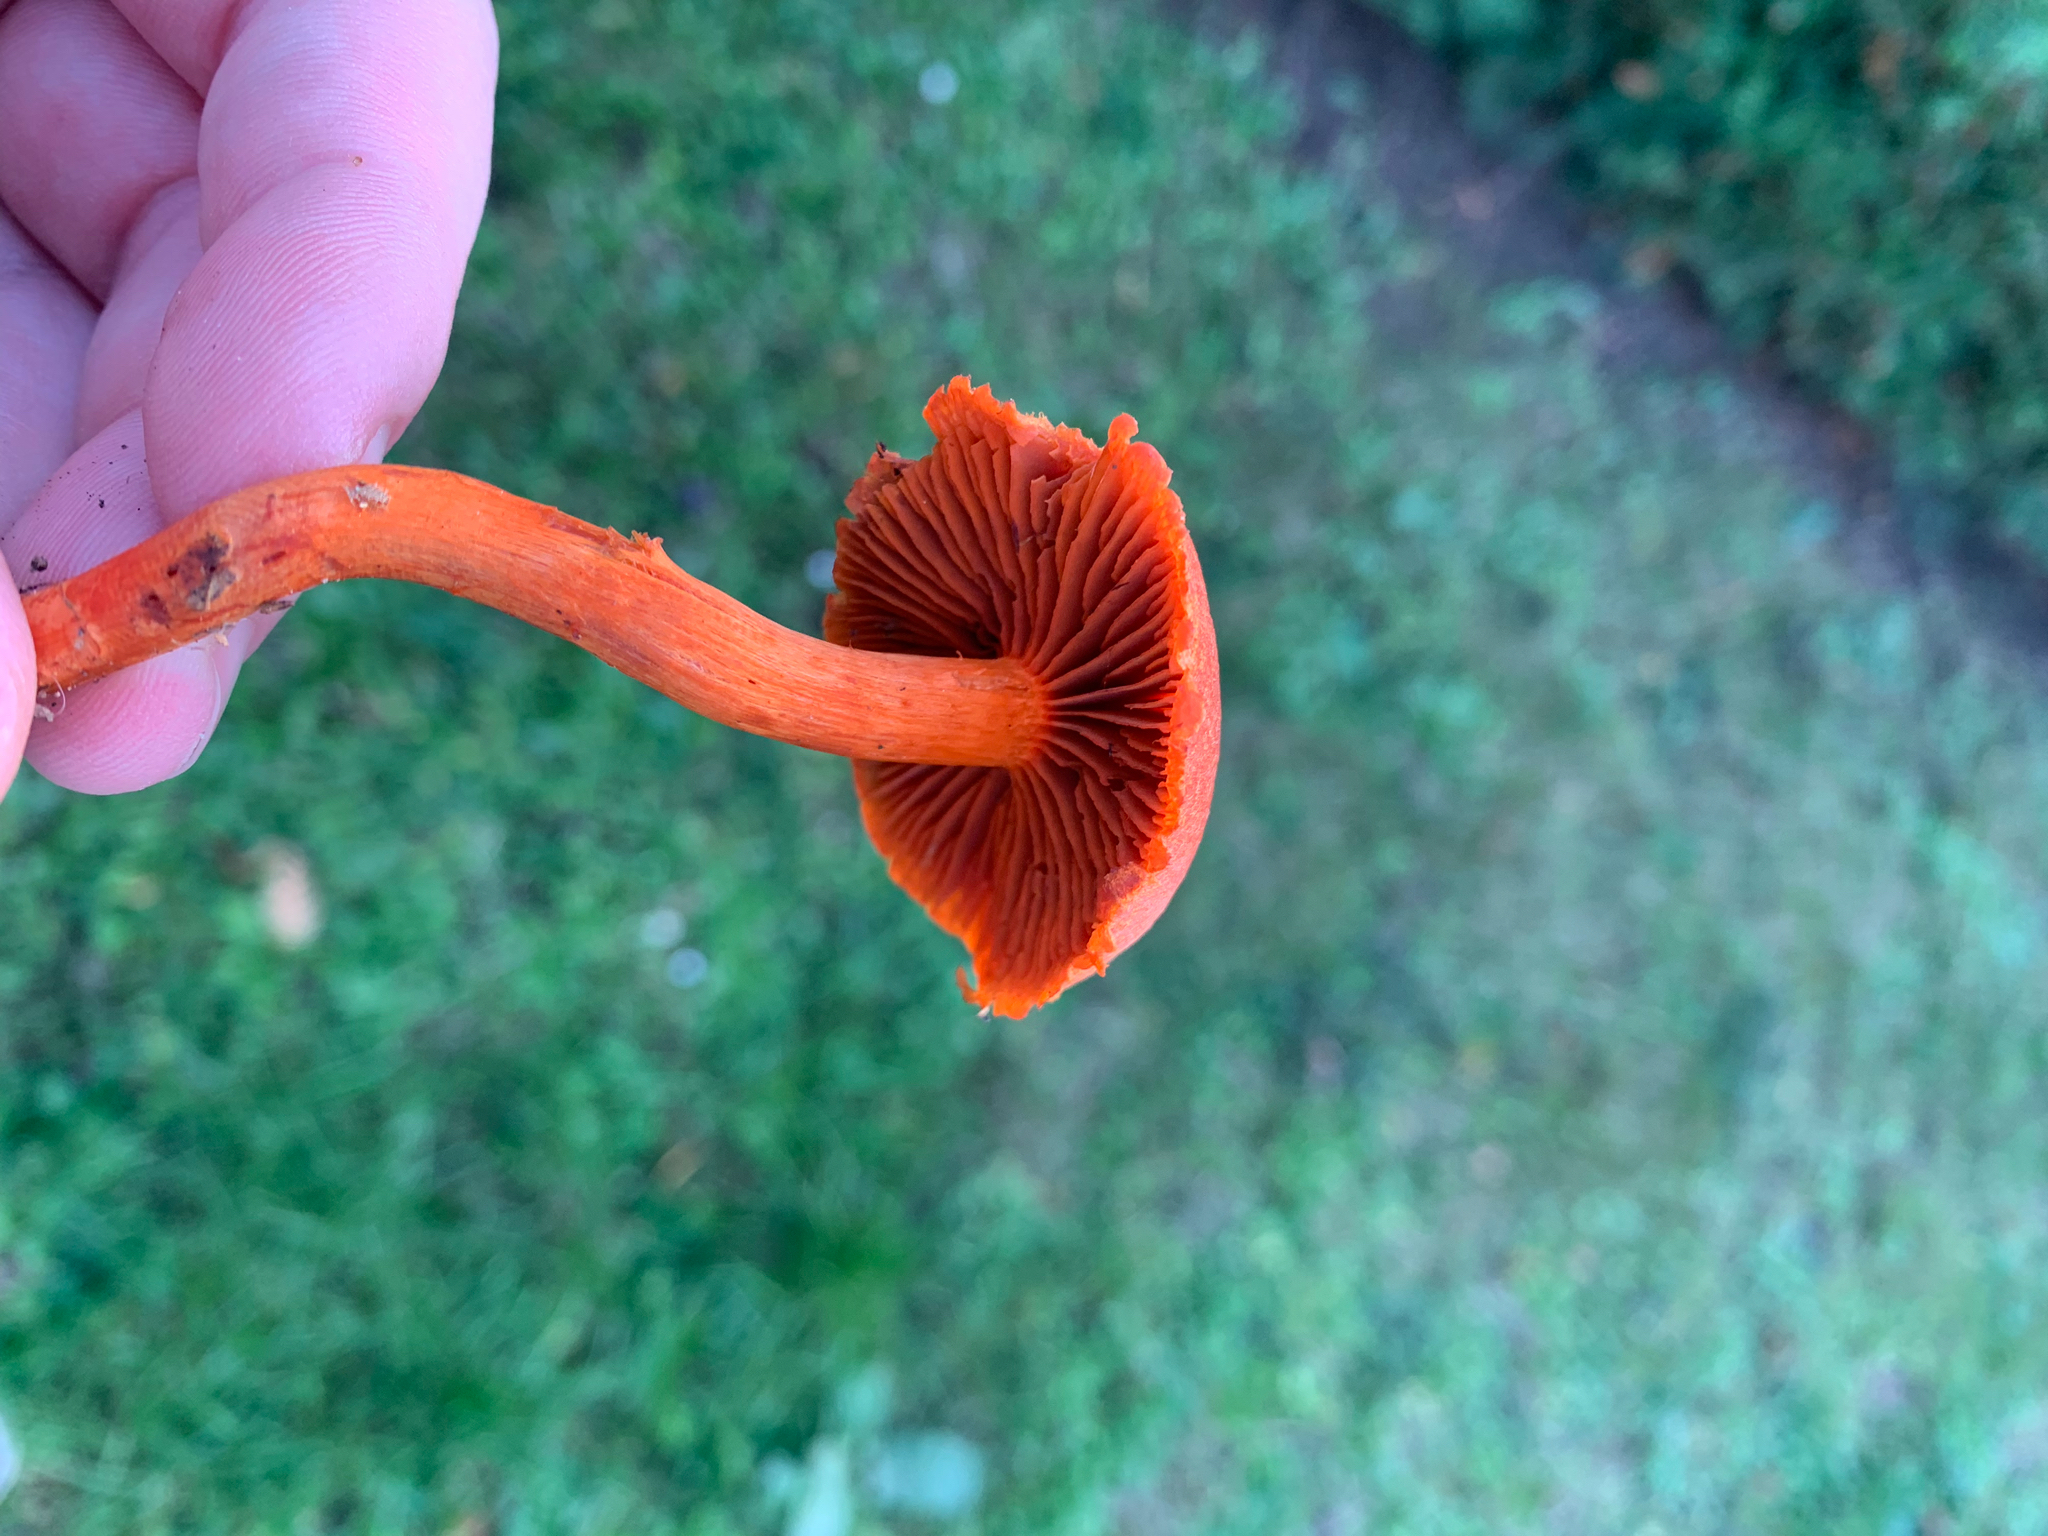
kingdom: Fungi
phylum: Basidiomycota
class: Agaricomycetes
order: Agaricales
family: Cortinariaceae
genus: Cortinarius
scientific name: Cortinarius cinnabarinus
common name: Cinnabar webcap
